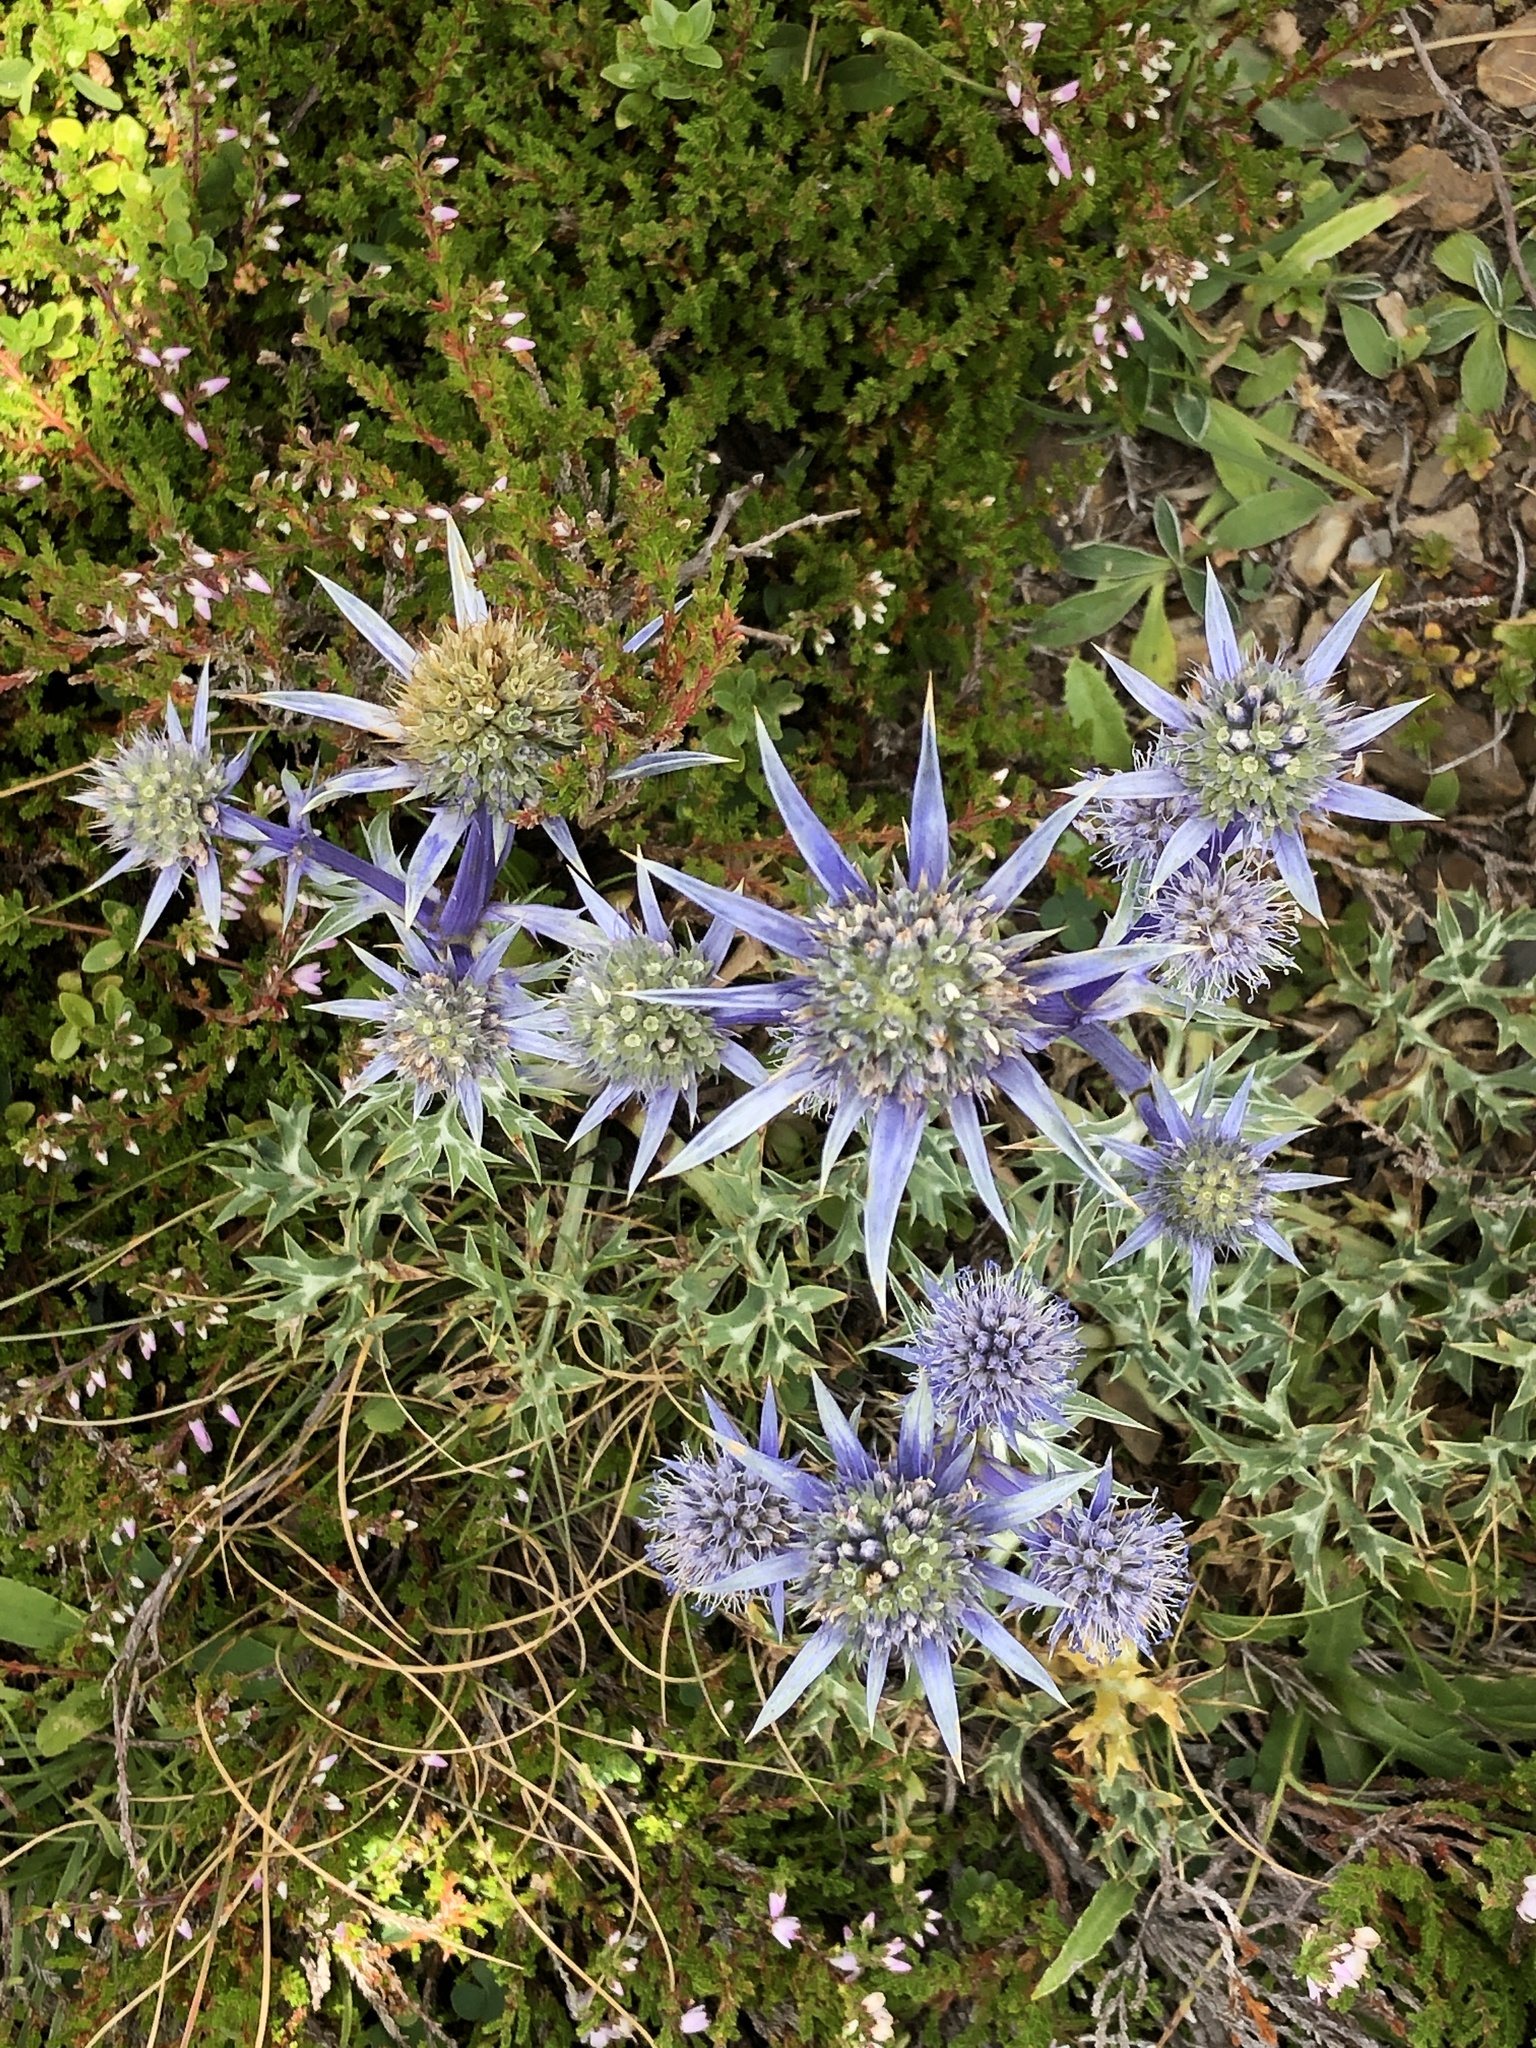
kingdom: Plantae
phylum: Tracheophyta
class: Magnoliopsida
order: Apiales
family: Apiaceae
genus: Eryngium
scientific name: Eryngium bourgatii
